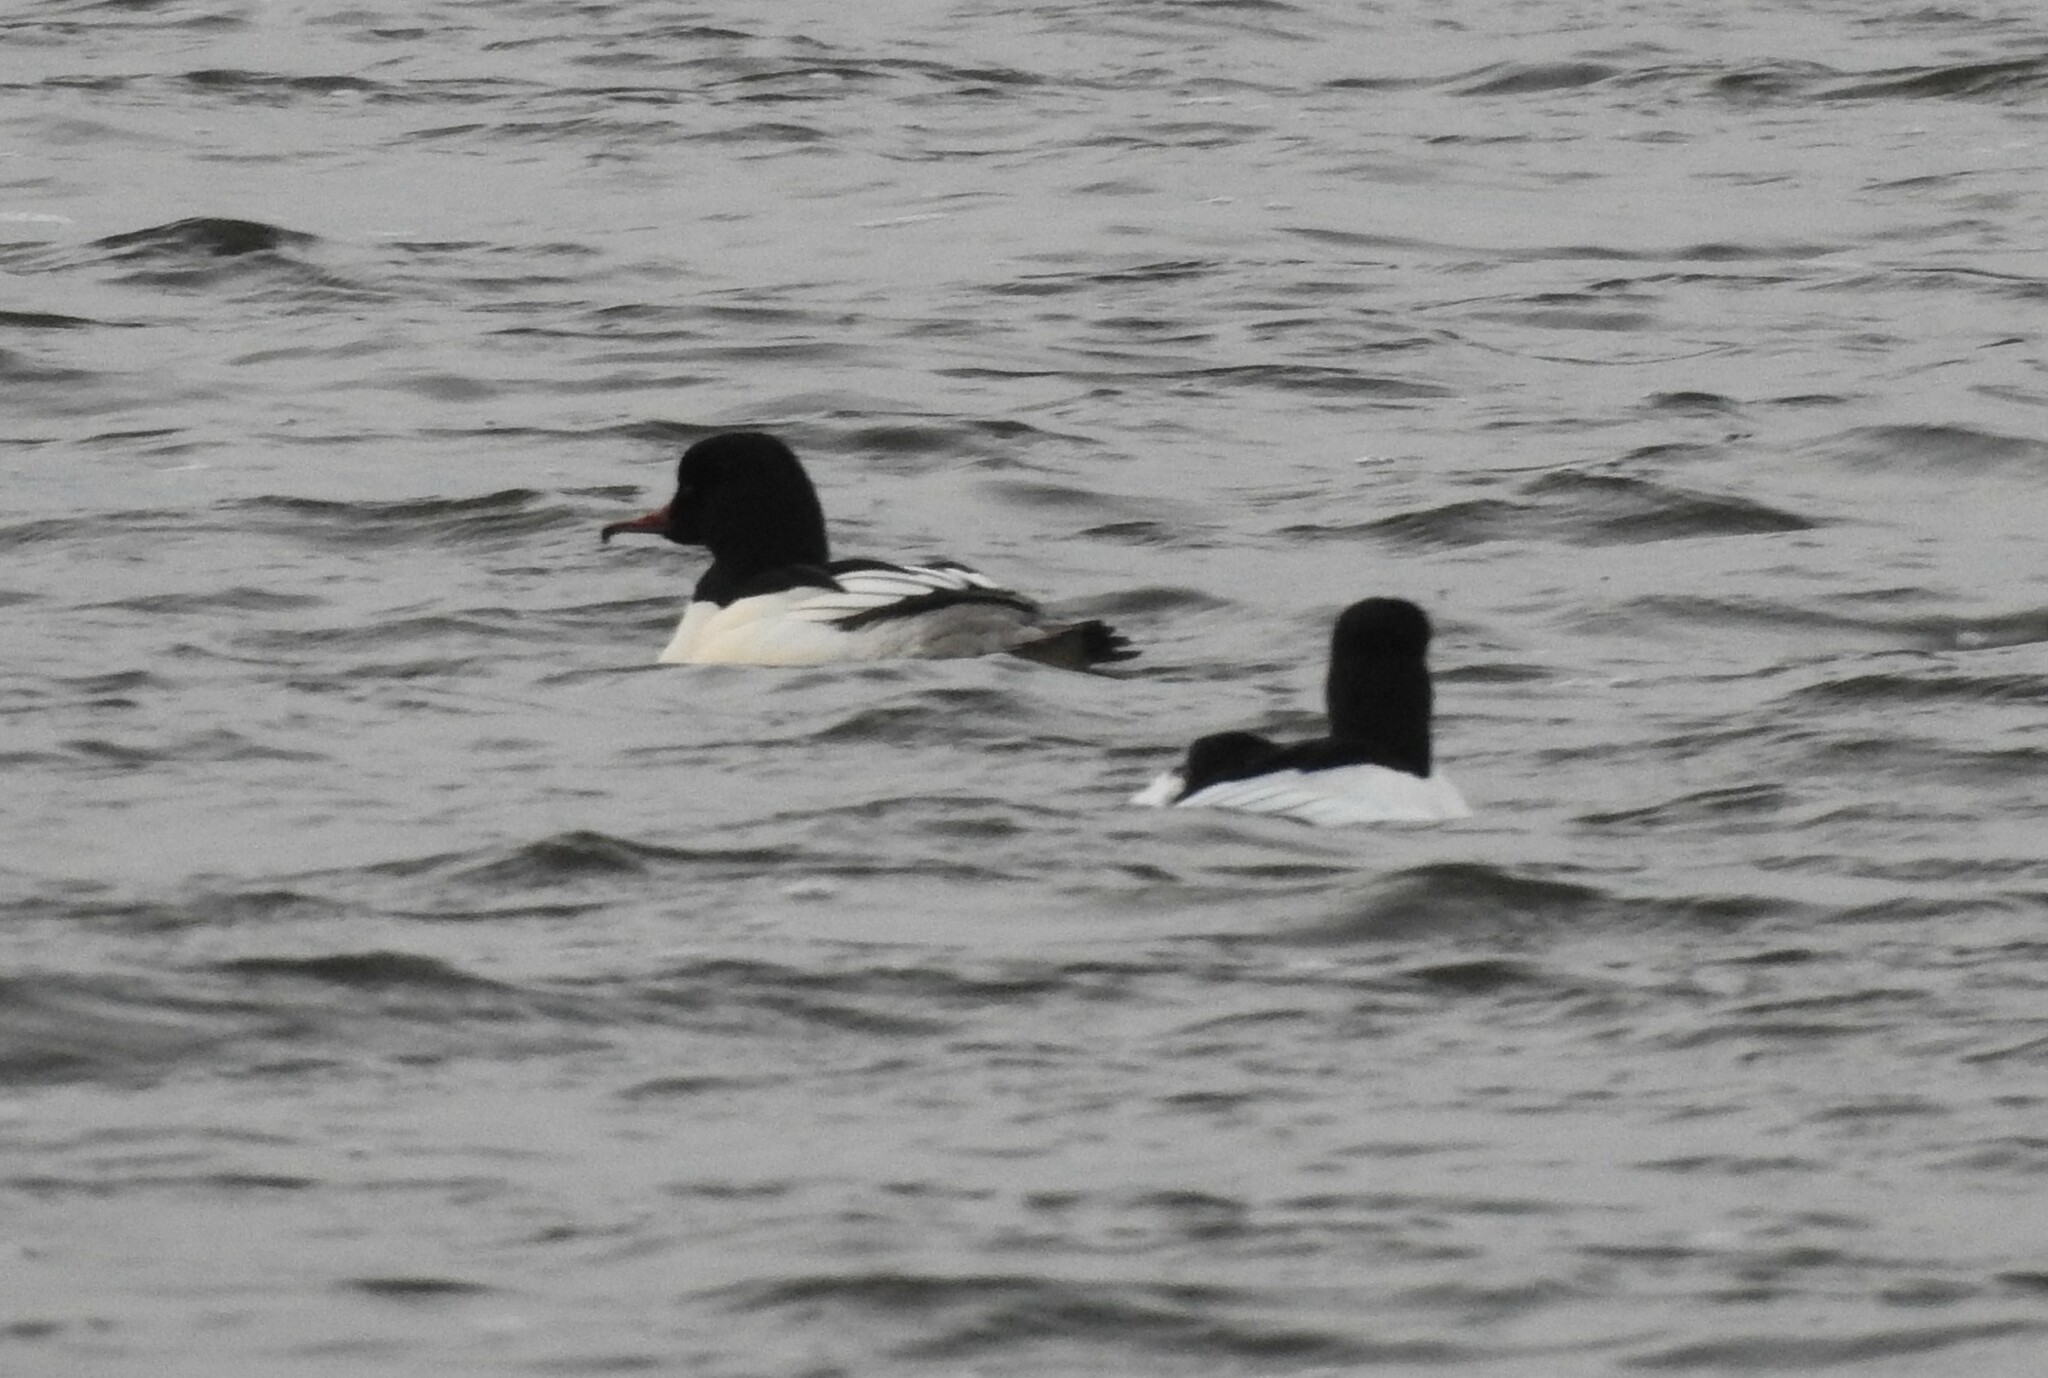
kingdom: Animalia
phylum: Chordata
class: Aves
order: Anseriformes
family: Anatidae
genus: Mergus
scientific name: Mergus merganser
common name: Common merganser
